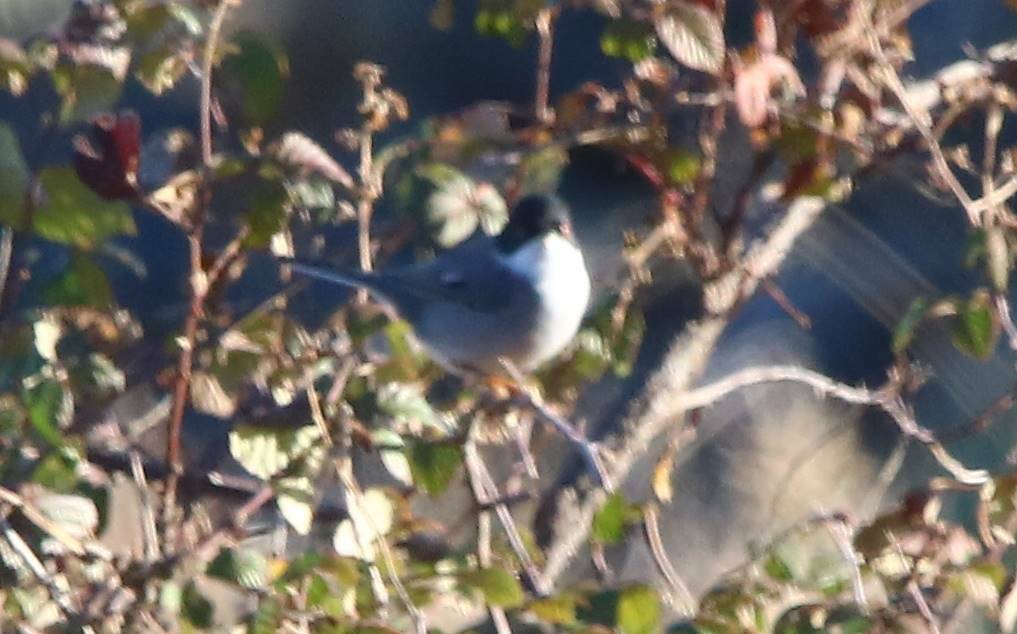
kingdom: Animalia
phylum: Chordata
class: Aves
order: Passeriformes
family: Sylviidae
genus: Curruca
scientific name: Curruca melanocephala
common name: Sardinian warbler
